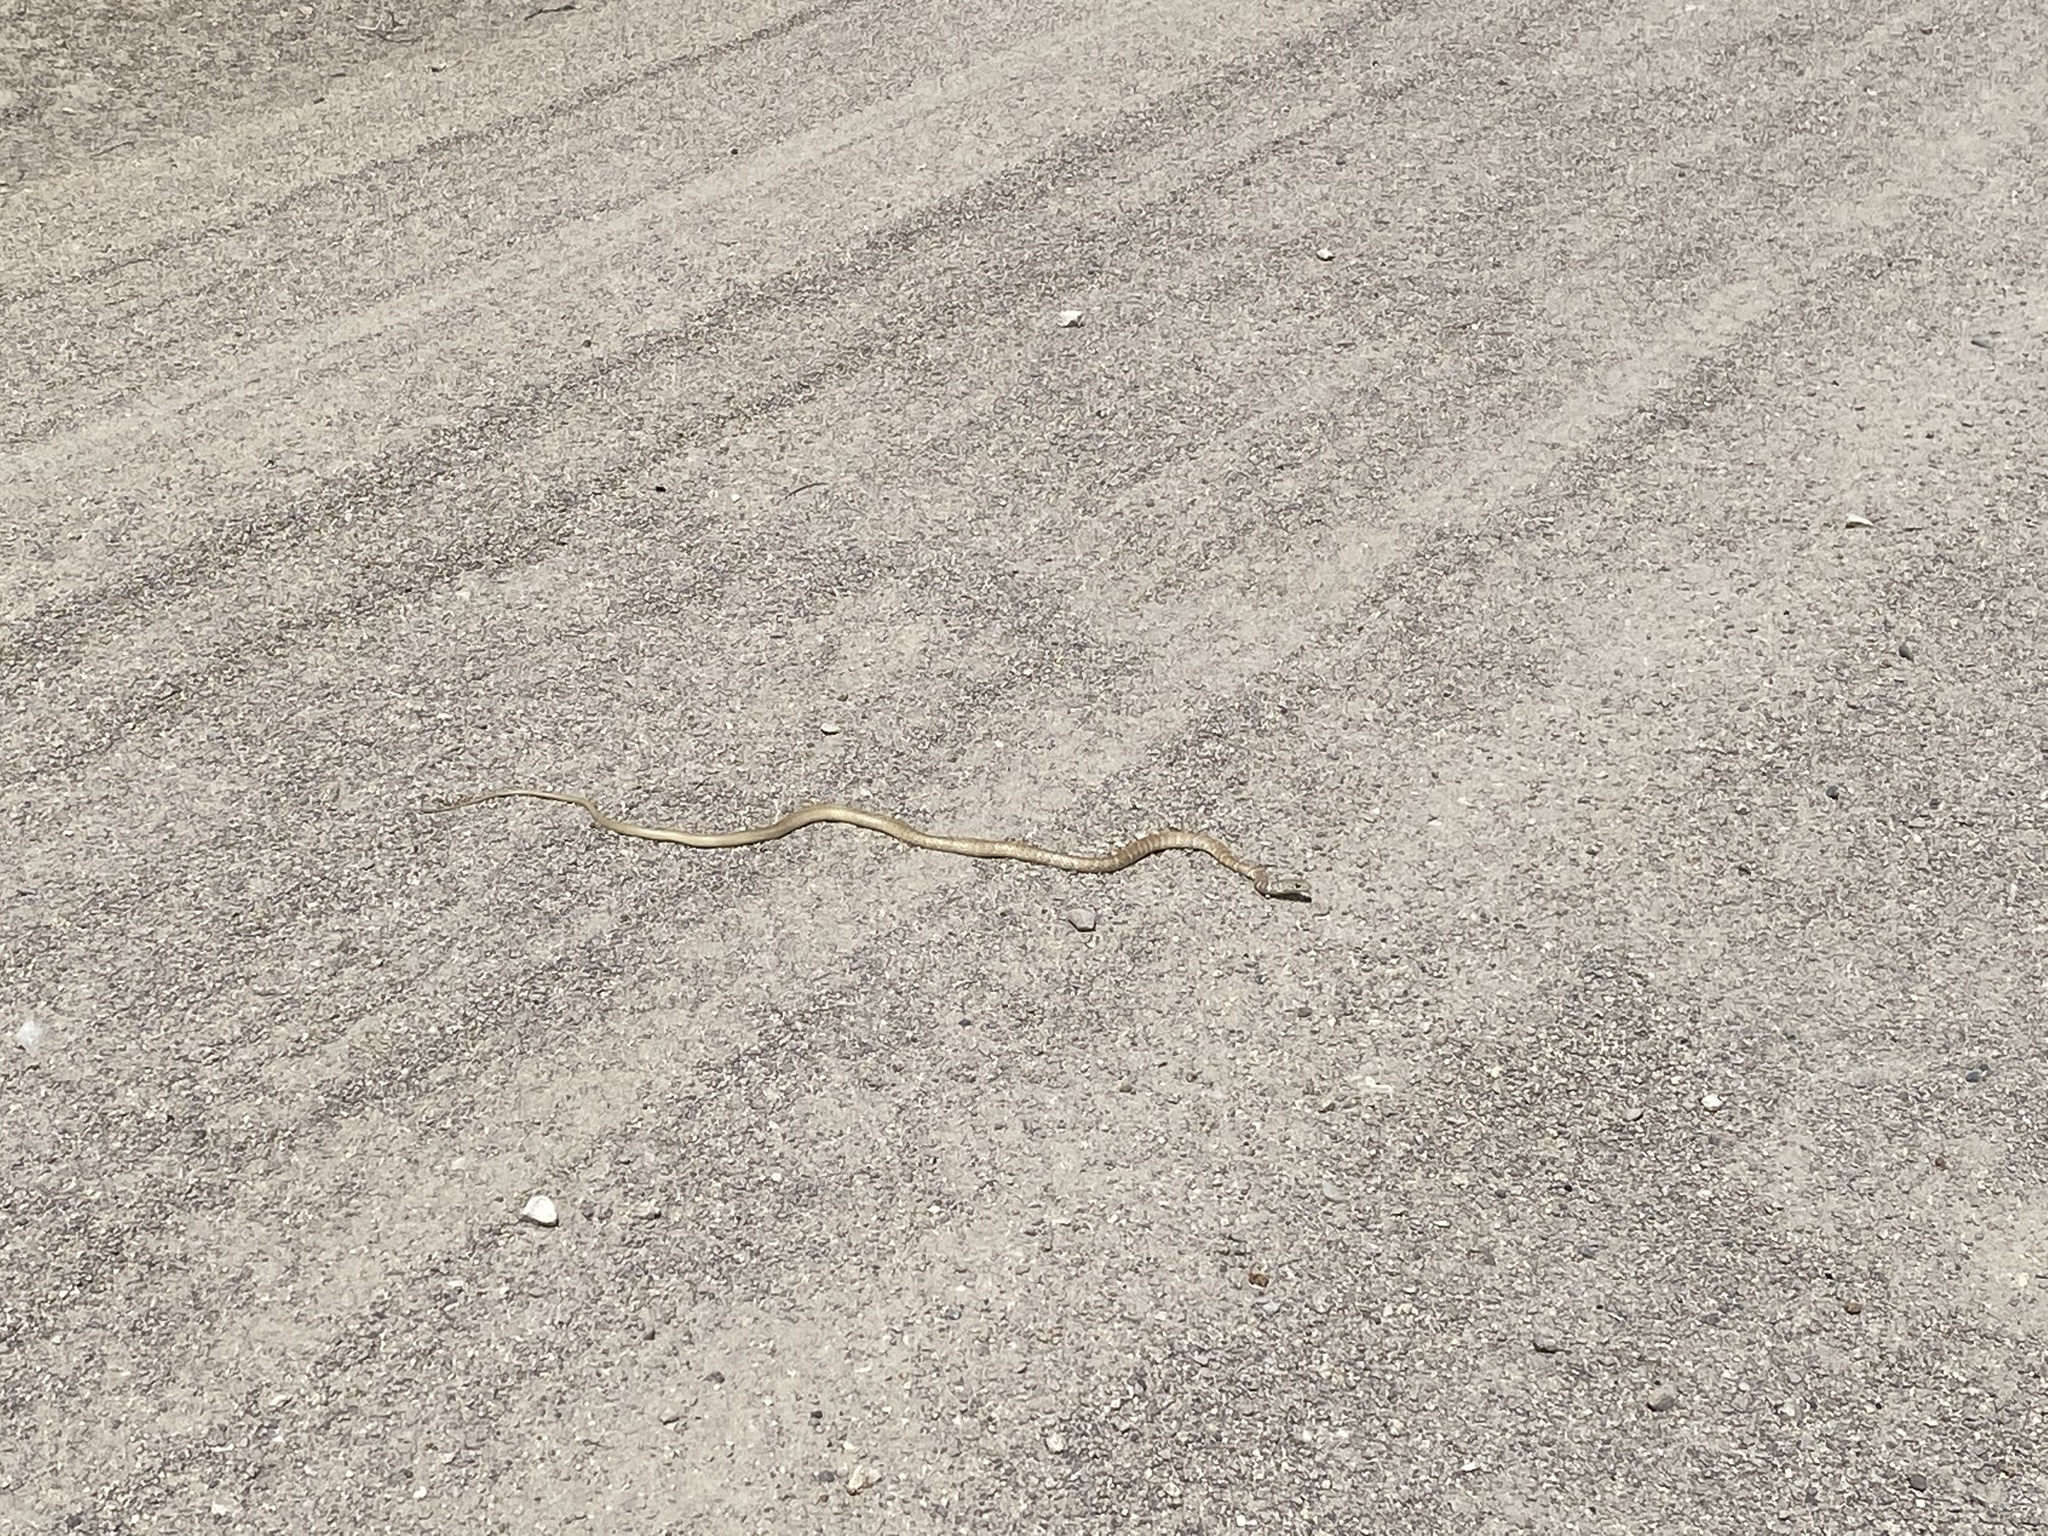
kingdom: Animalia
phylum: Chordata
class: Squamata
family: Colubridae
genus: Masticophis
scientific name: Masticophis flagellum
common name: Coachwhip
